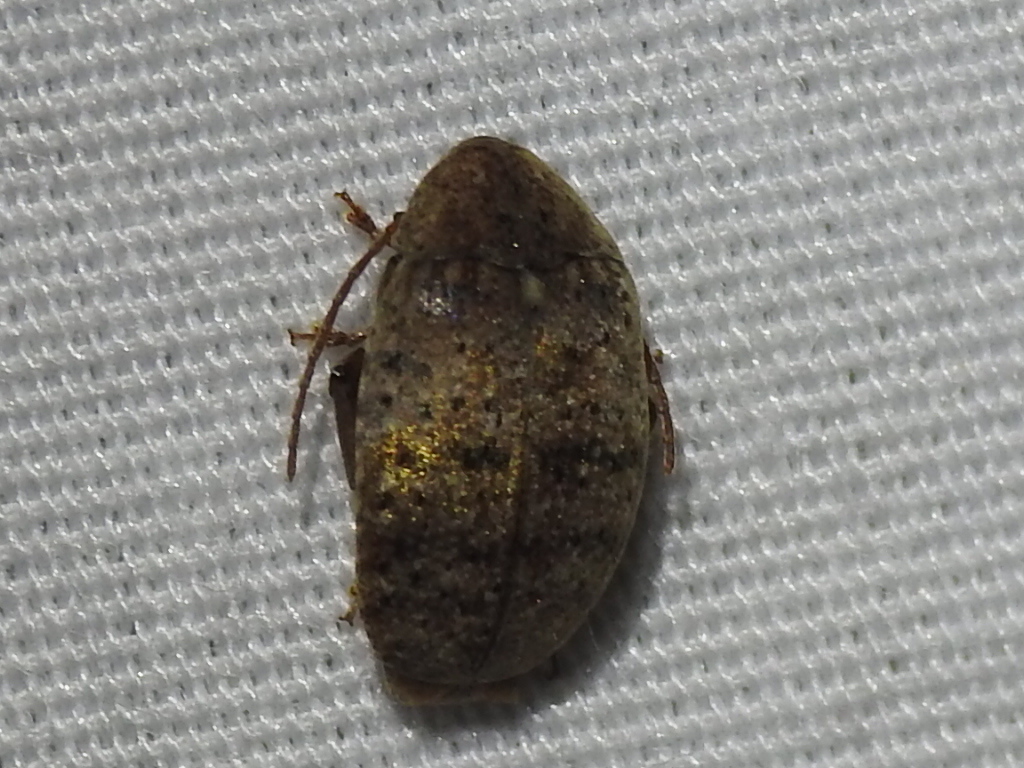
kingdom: Animalia
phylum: Arthropoda
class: Insecta
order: Coleoptera
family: Chrysomelidae
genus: Amblycerus
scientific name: Amblycerus robiniae
